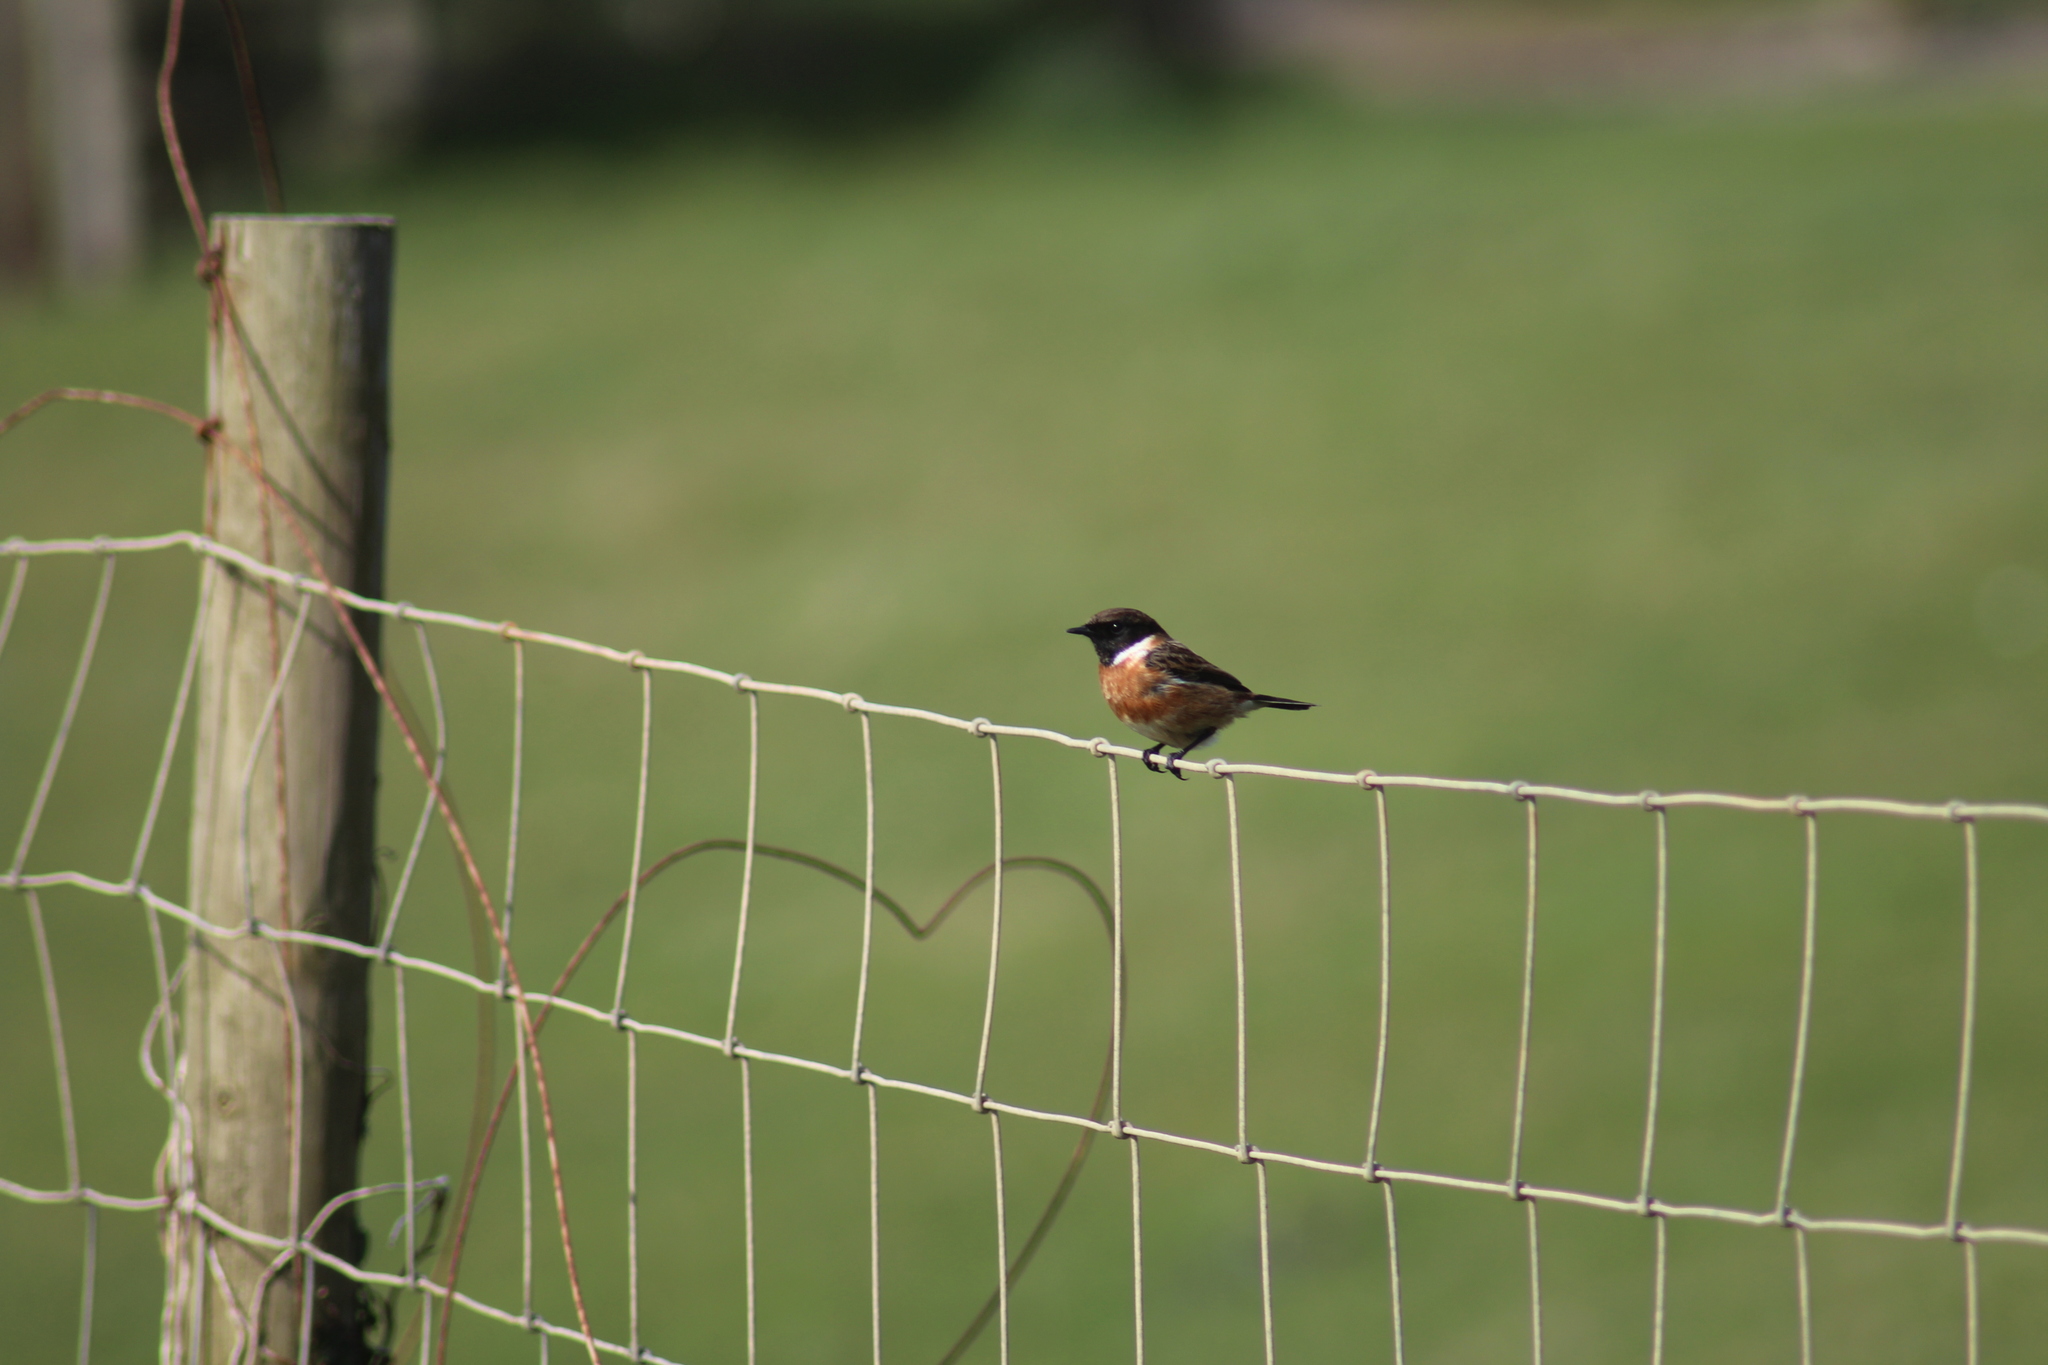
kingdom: Animalia
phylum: Chordata
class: Aves
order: Passeriformes
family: Muscicapidae
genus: Saxicola
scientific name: Saxicola rubicola
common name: European stonechat
